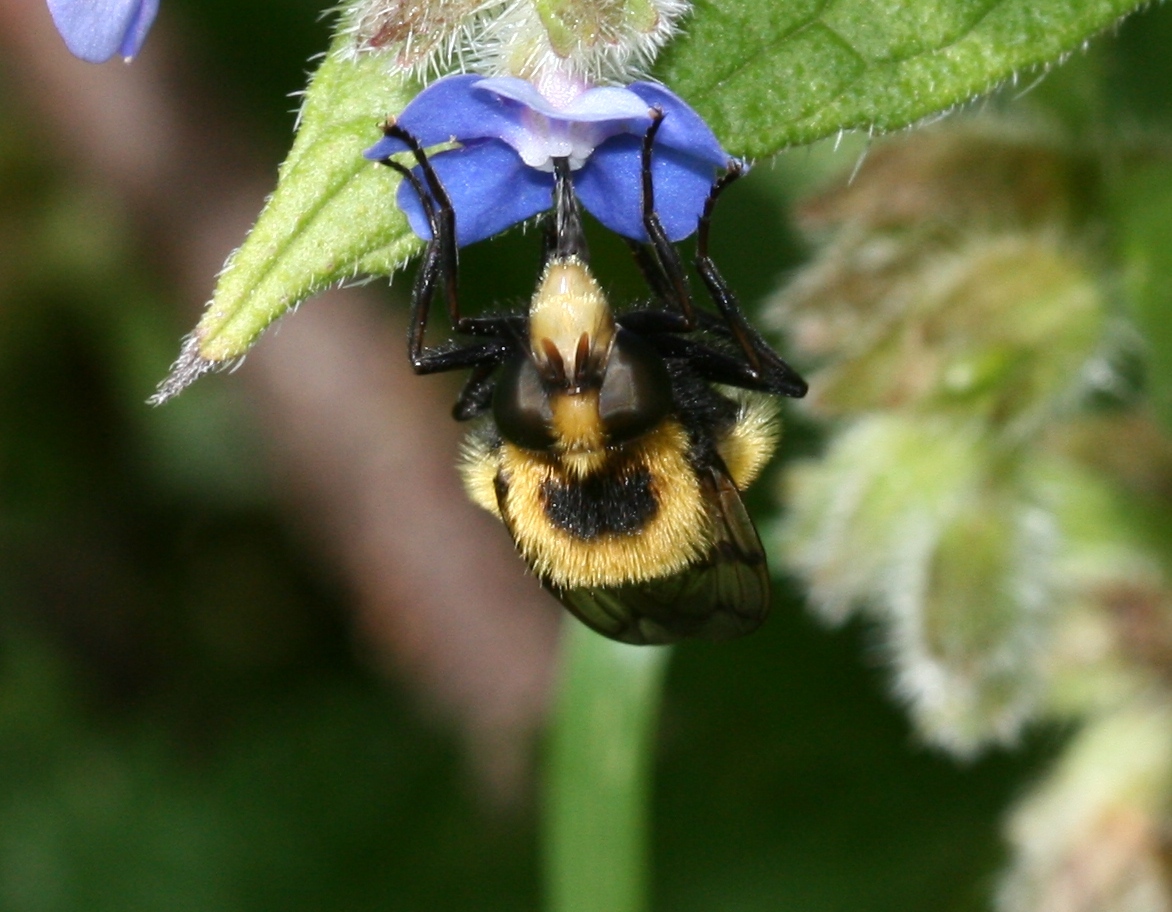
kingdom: Animalia
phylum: Arthropoda
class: Insecta
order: Diptera
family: Syrphidae
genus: Volucella
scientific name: Volucella bombylans
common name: Bumble bee hover fly
